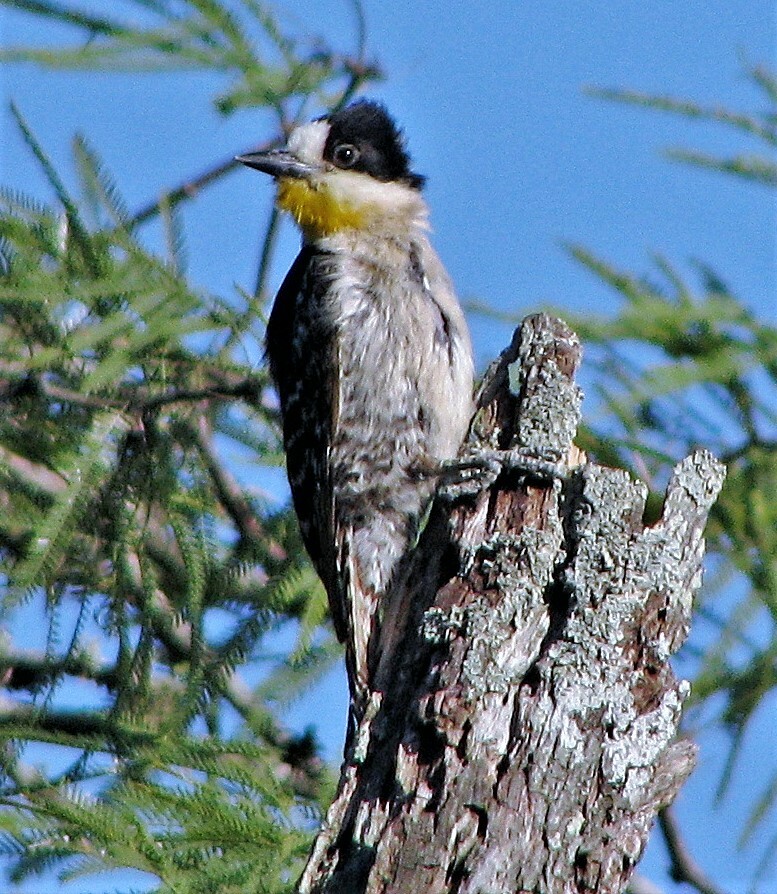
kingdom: Animalia
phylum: Chordata
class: Aves
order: Piciformes
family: Picidae
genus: Melanerpes
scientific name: Melanerpes cactorum
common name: White-fronted woodpecker
